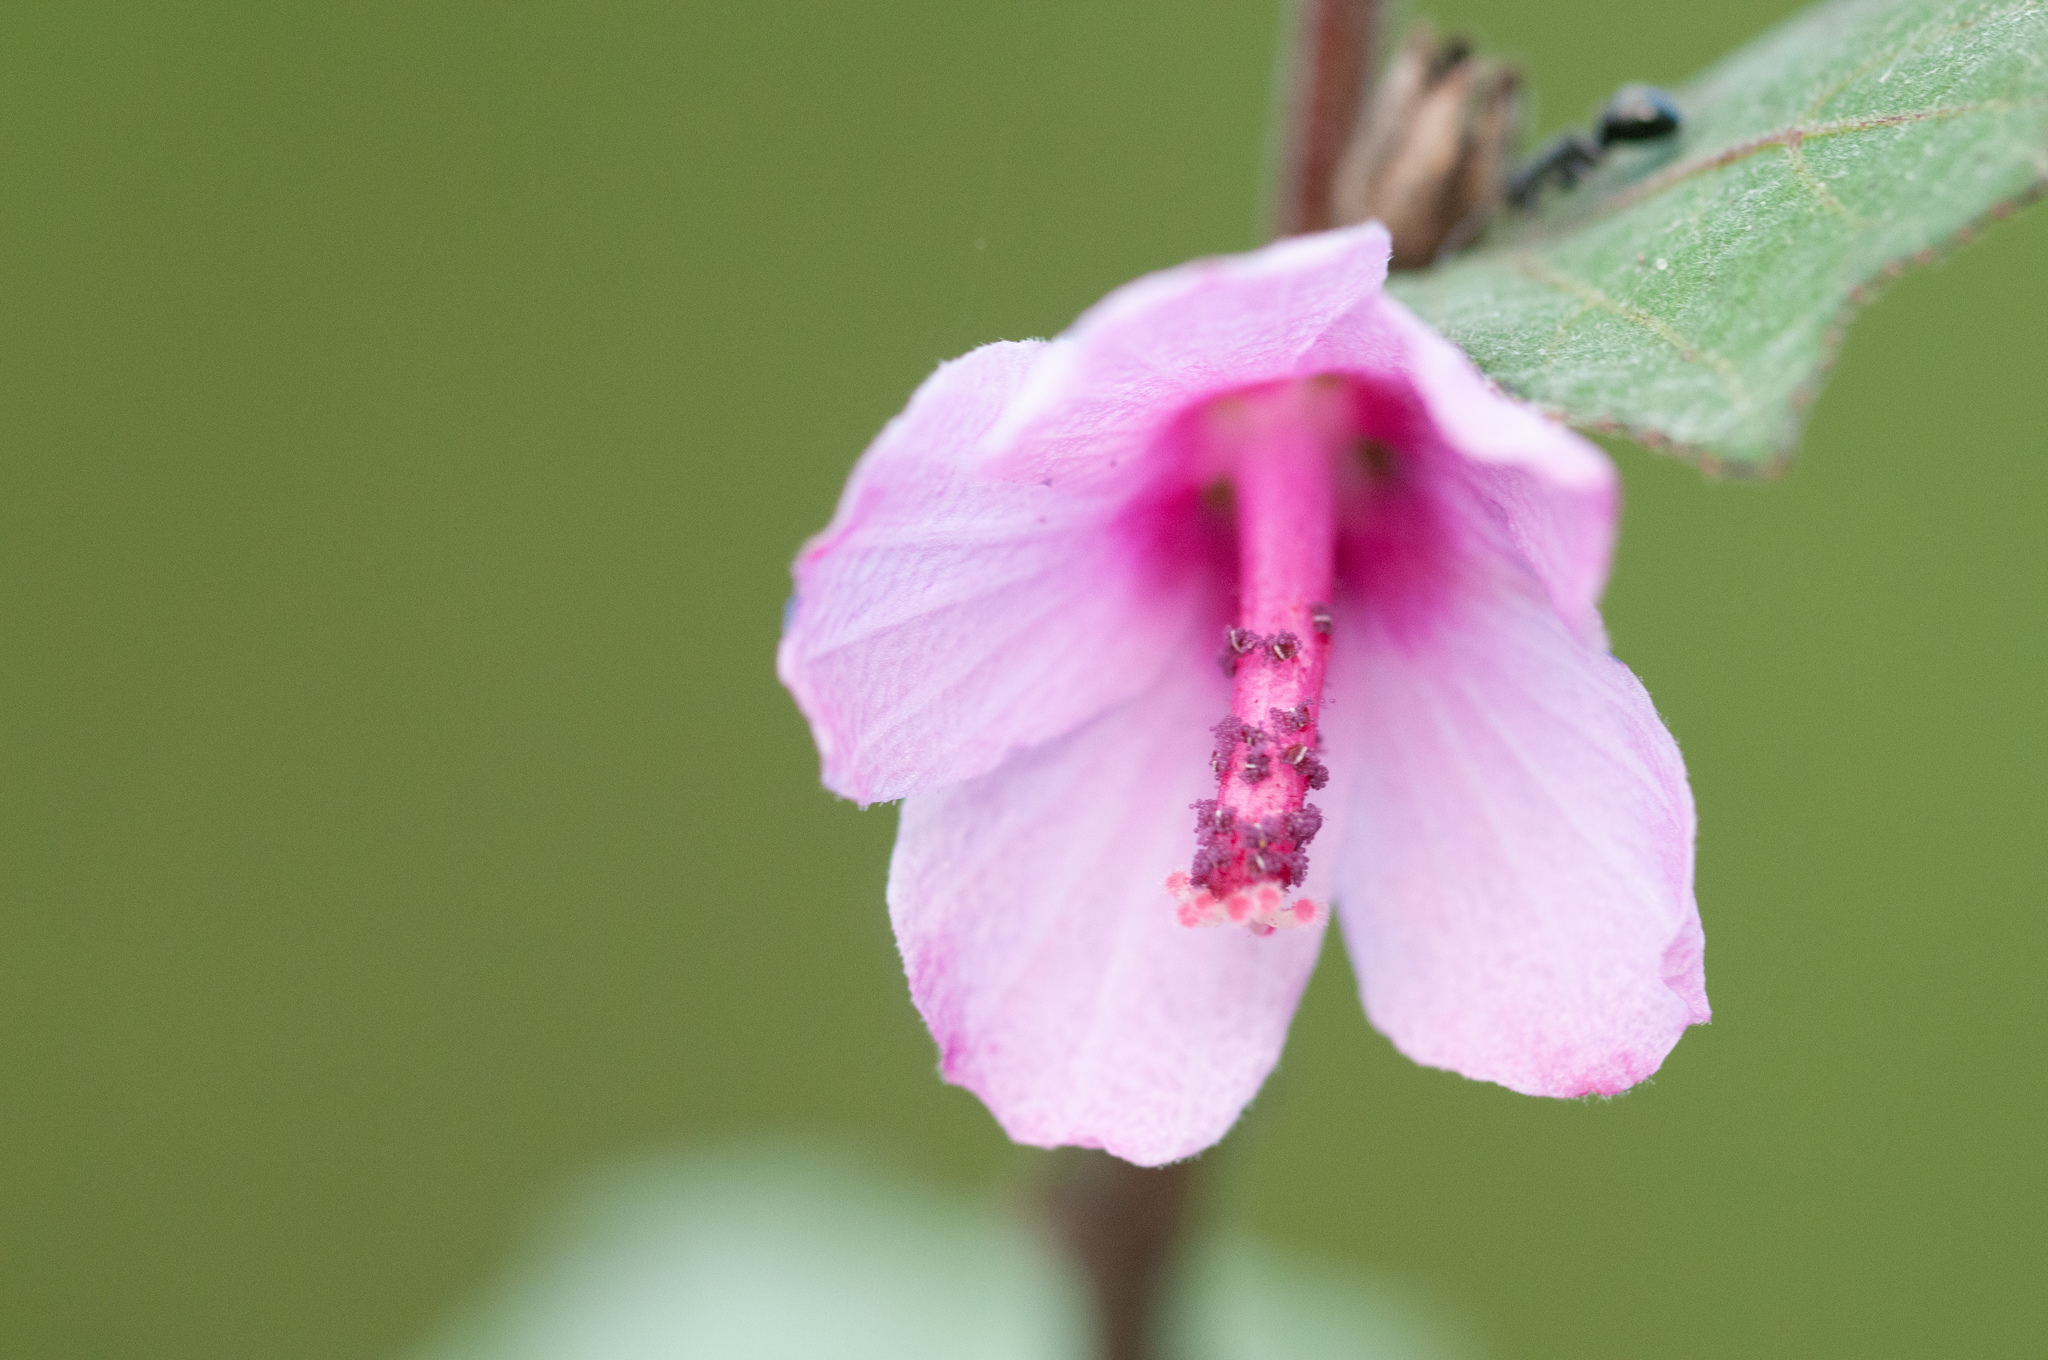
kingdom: Plantae
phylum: Tracheophyta
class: Magnoliopsida
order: Malvales
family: Malvaceae
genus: Urena
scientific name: Urena lobata
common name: Caesarweed
